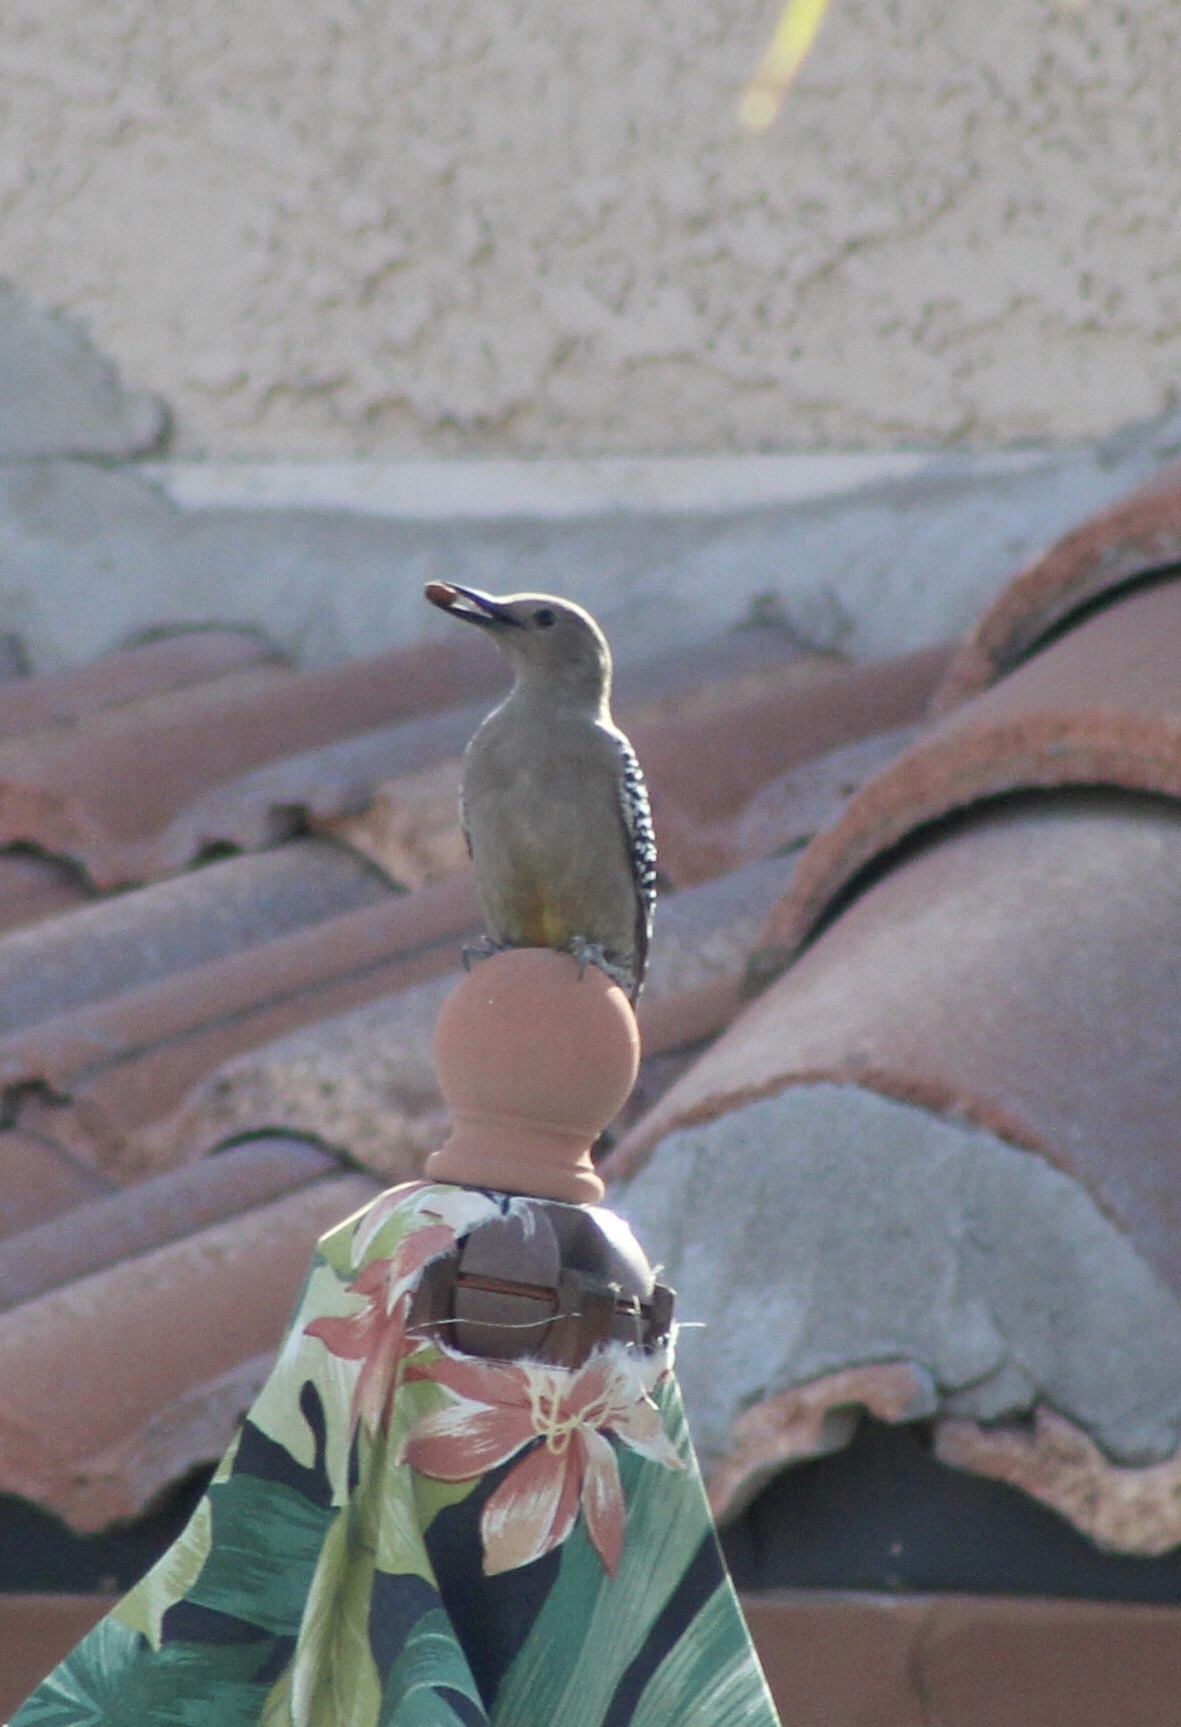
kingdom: Animalia
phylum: Chordata
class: Aves
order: Piciformes
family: Picidae
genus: Melanerpes
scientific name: Melanerpes uropygialis
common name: Gila woodpecker
